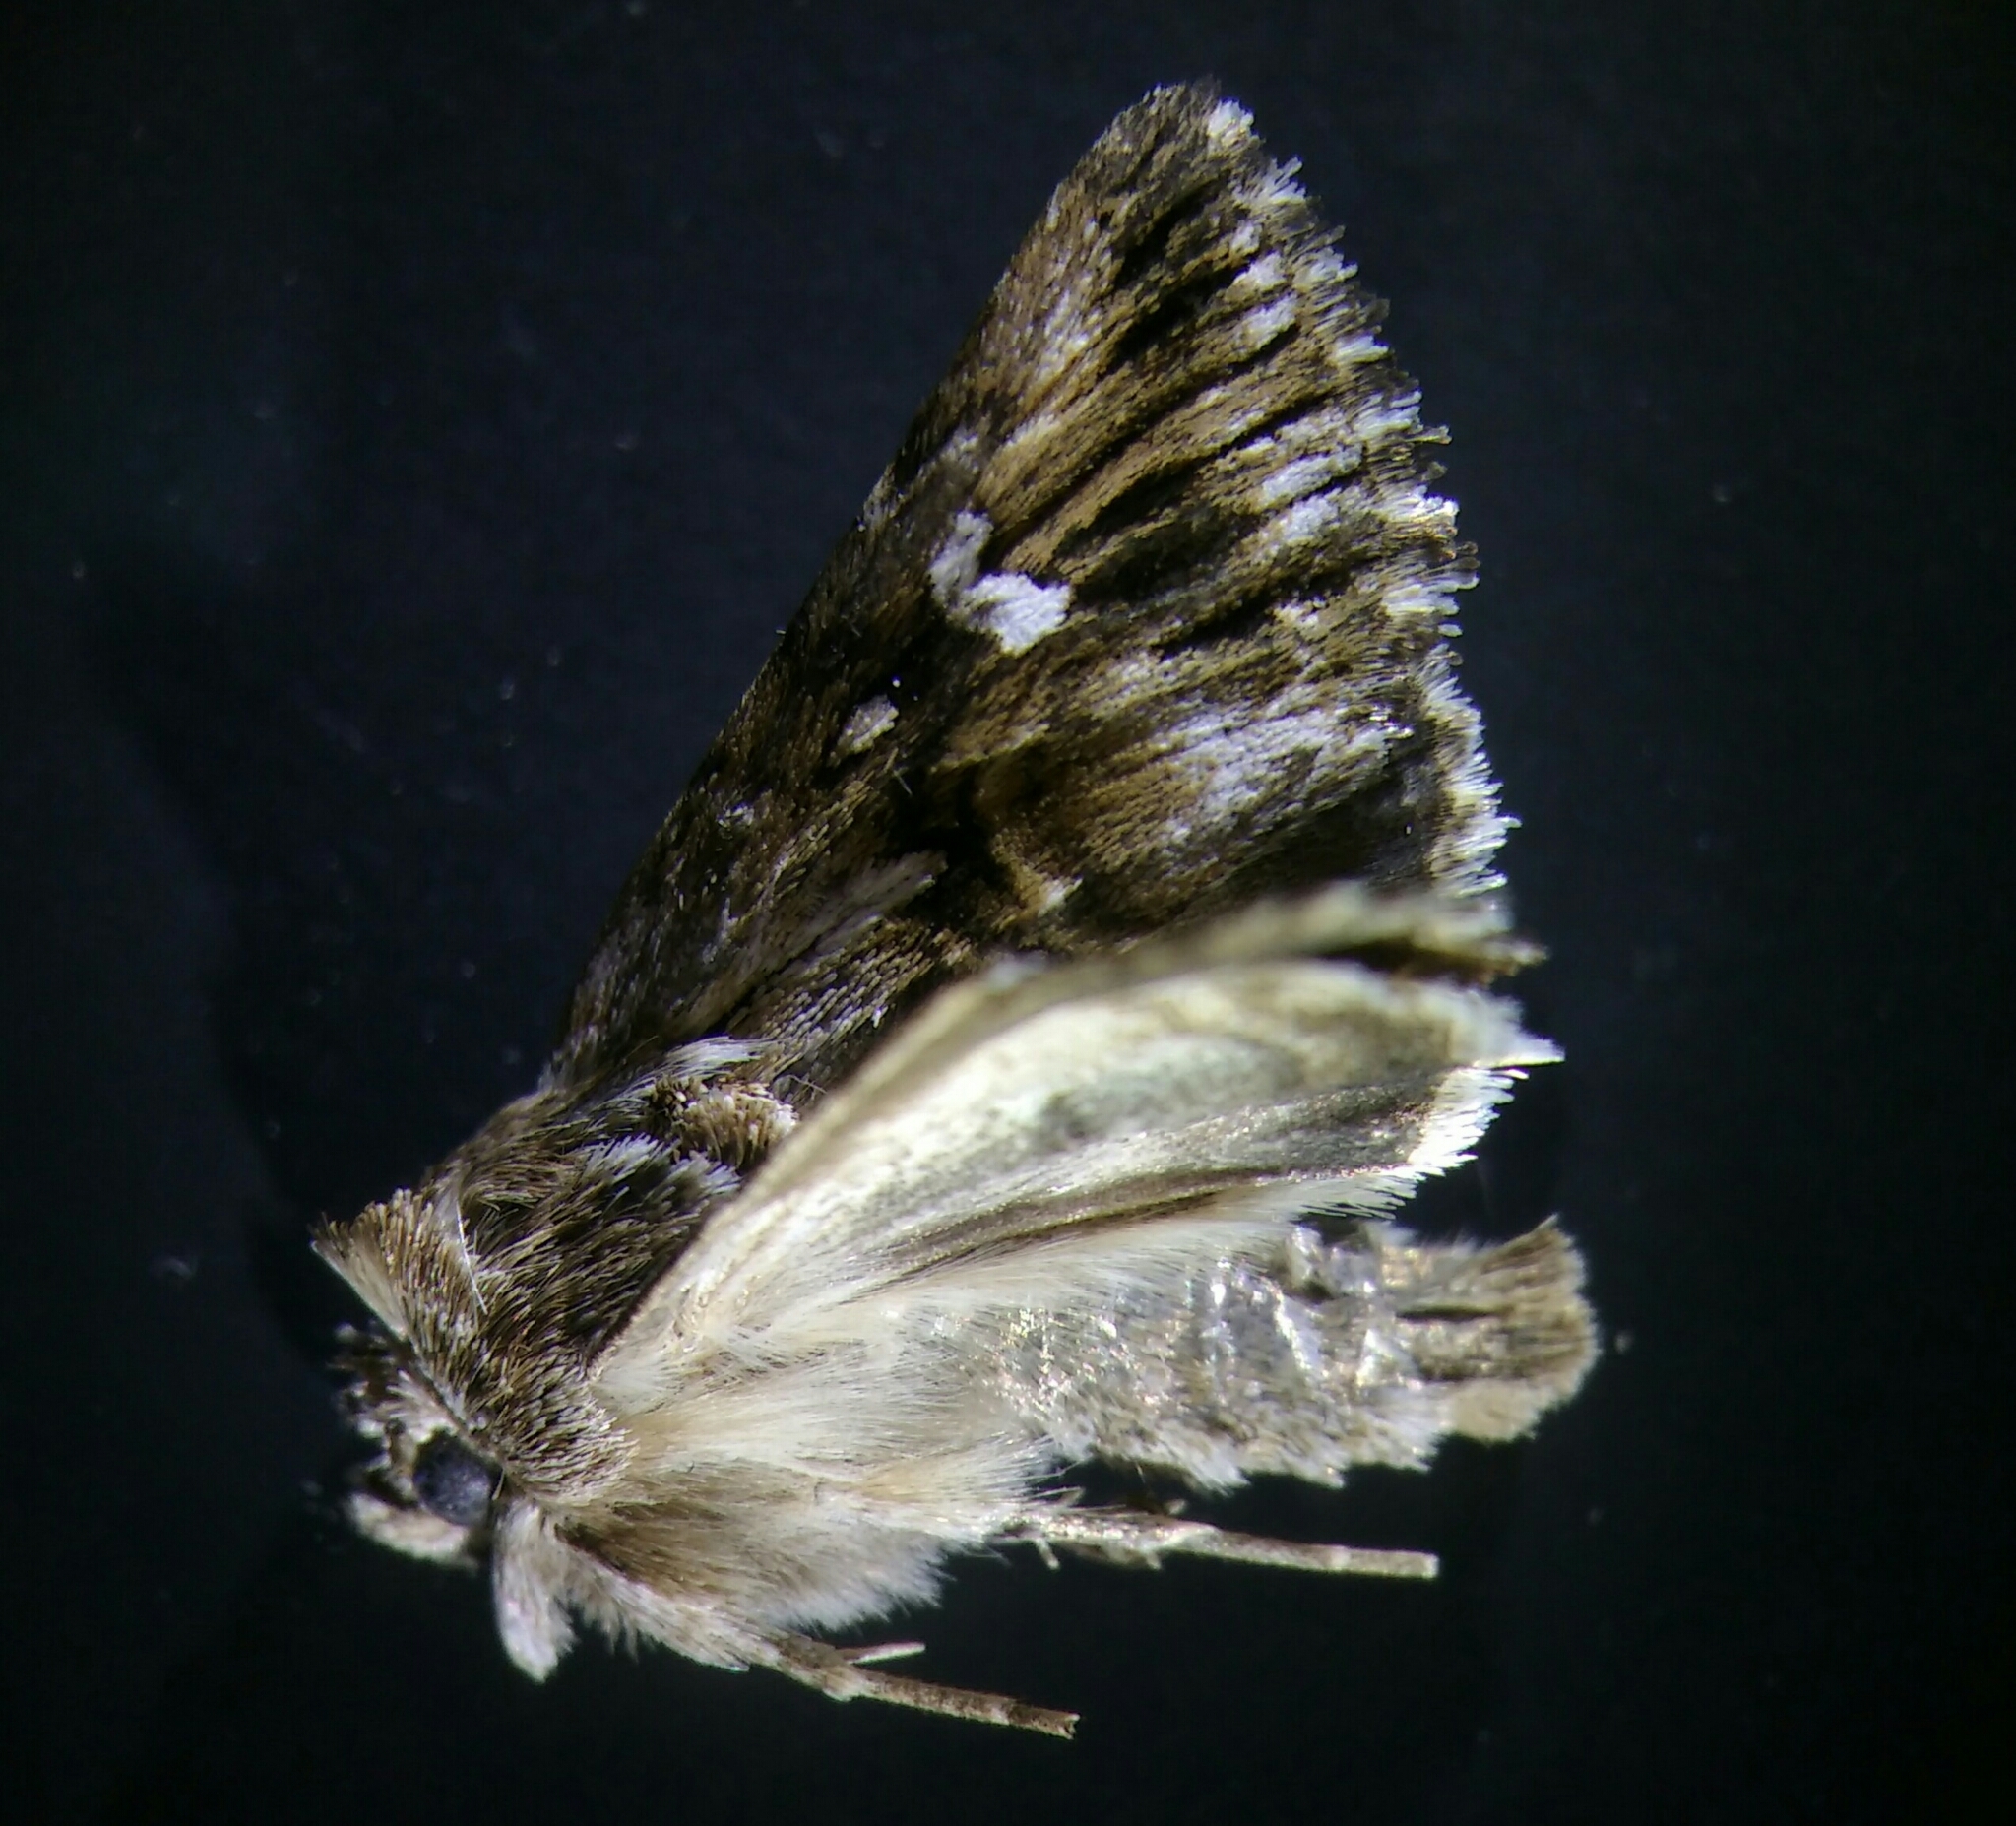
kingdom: Animalia
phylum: Arthropoda
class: Insecta
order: Lepidoptera
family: Noctuidae
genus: Calophasia
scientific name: Calophasia lunula
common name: Toadflax brocade
